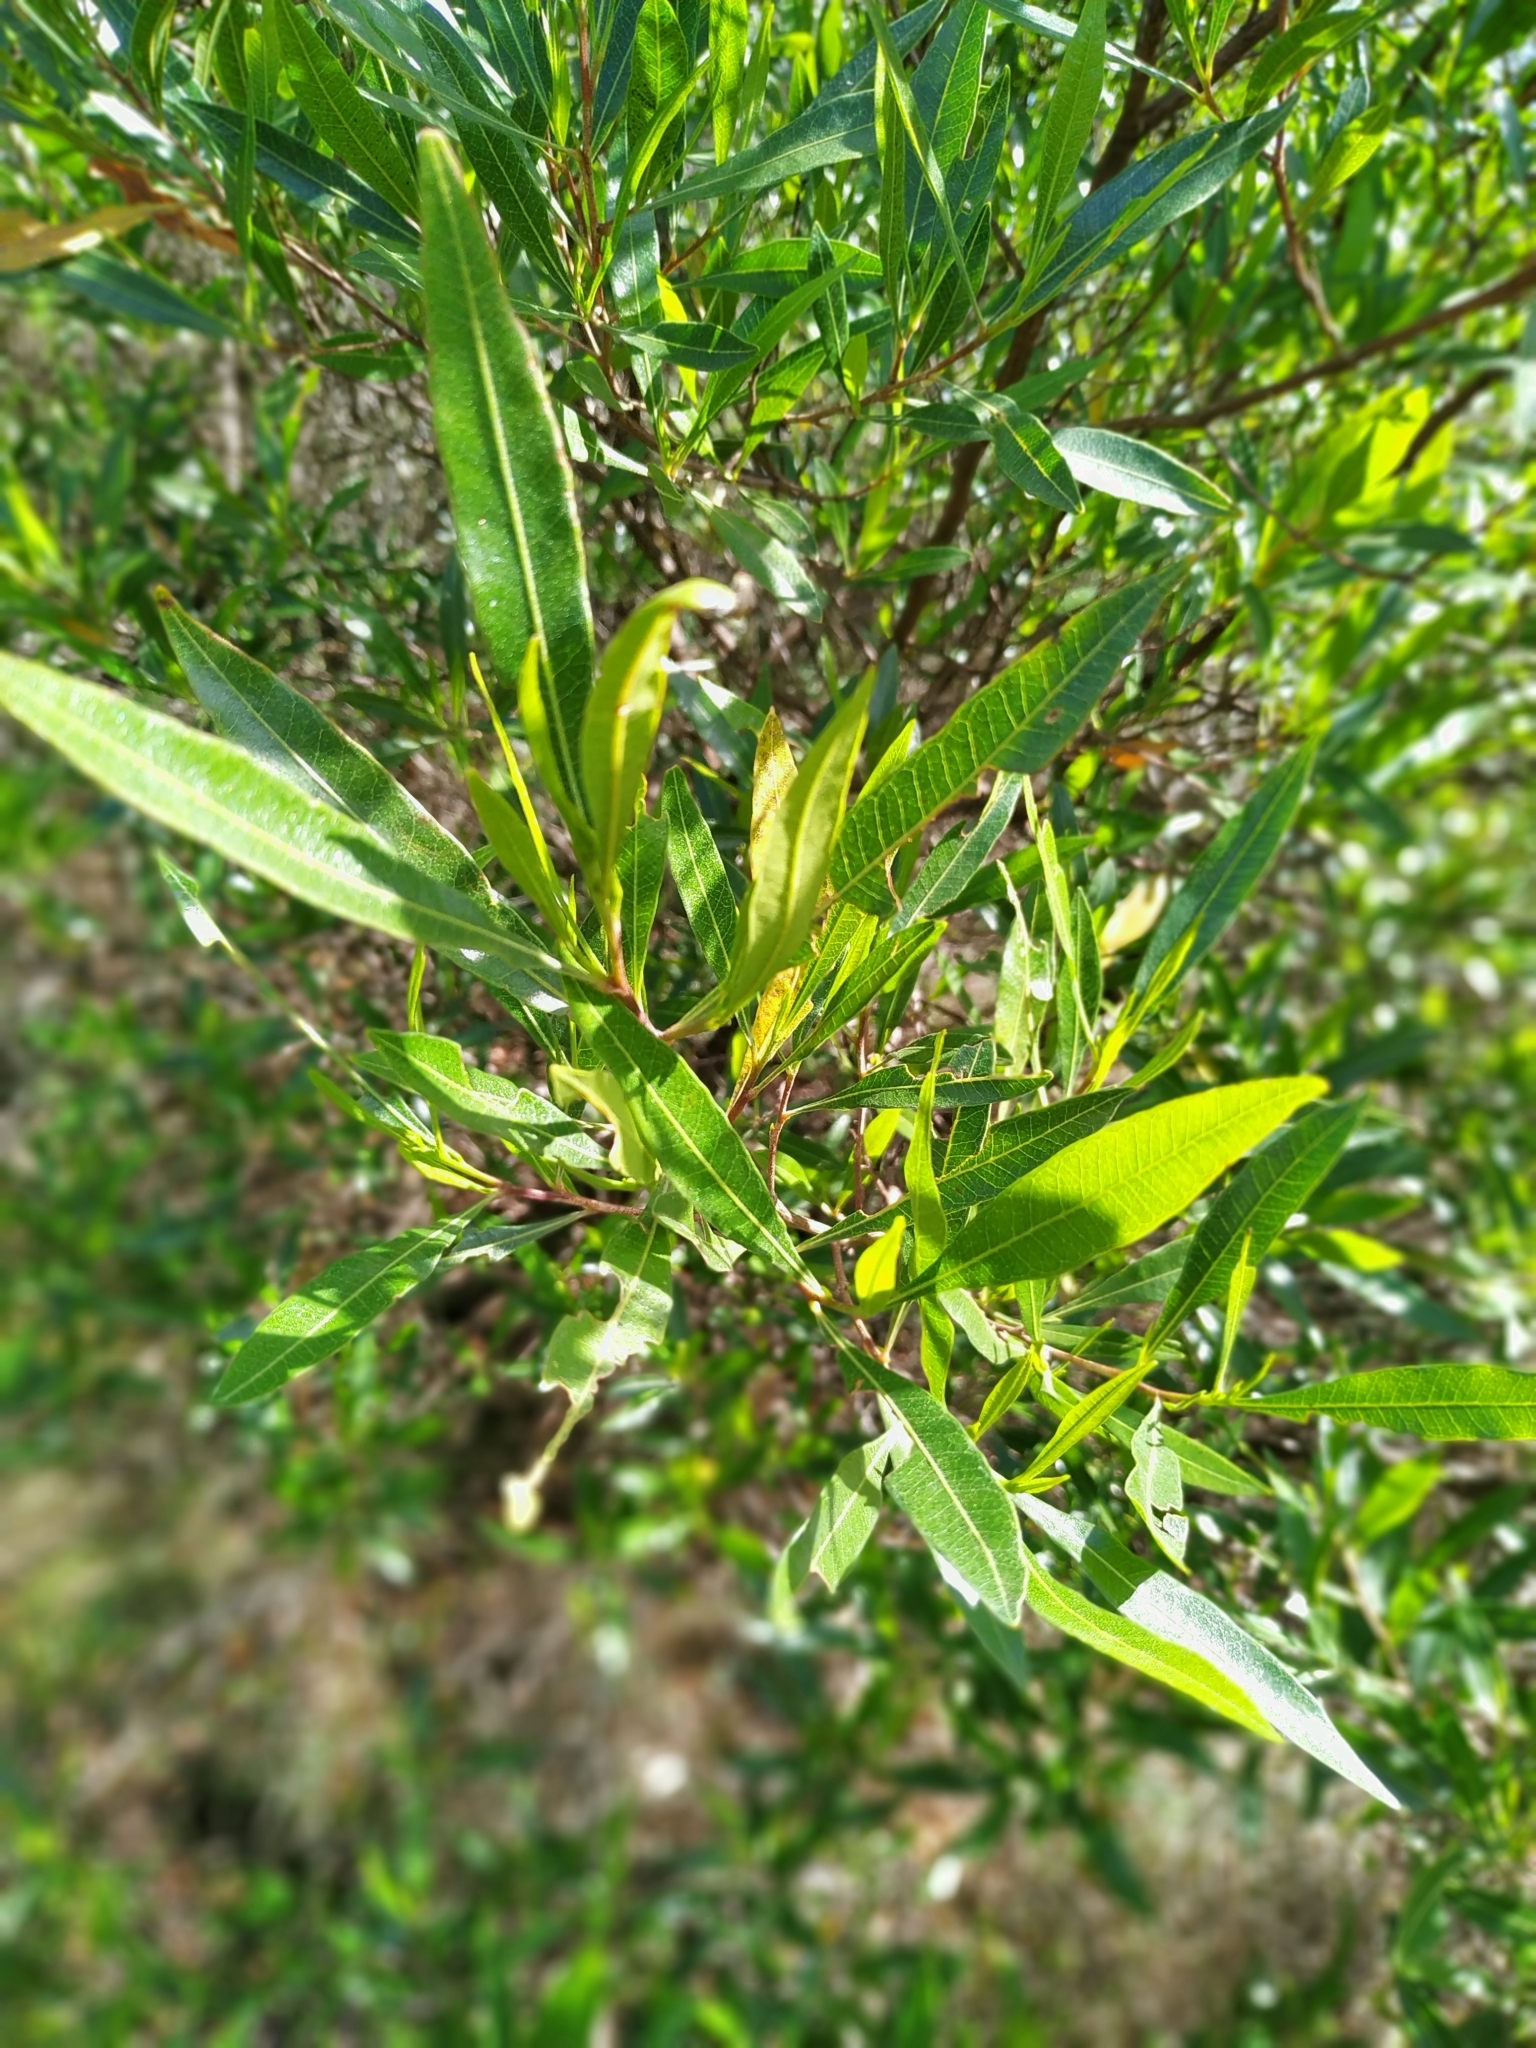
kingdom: Plantae
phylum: Tracheophyta
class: Magnoliopsida
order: Sapindales
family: Sapindaceae
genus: Dodonaea
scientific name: Dodonaea viscosa
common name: Hopbush
